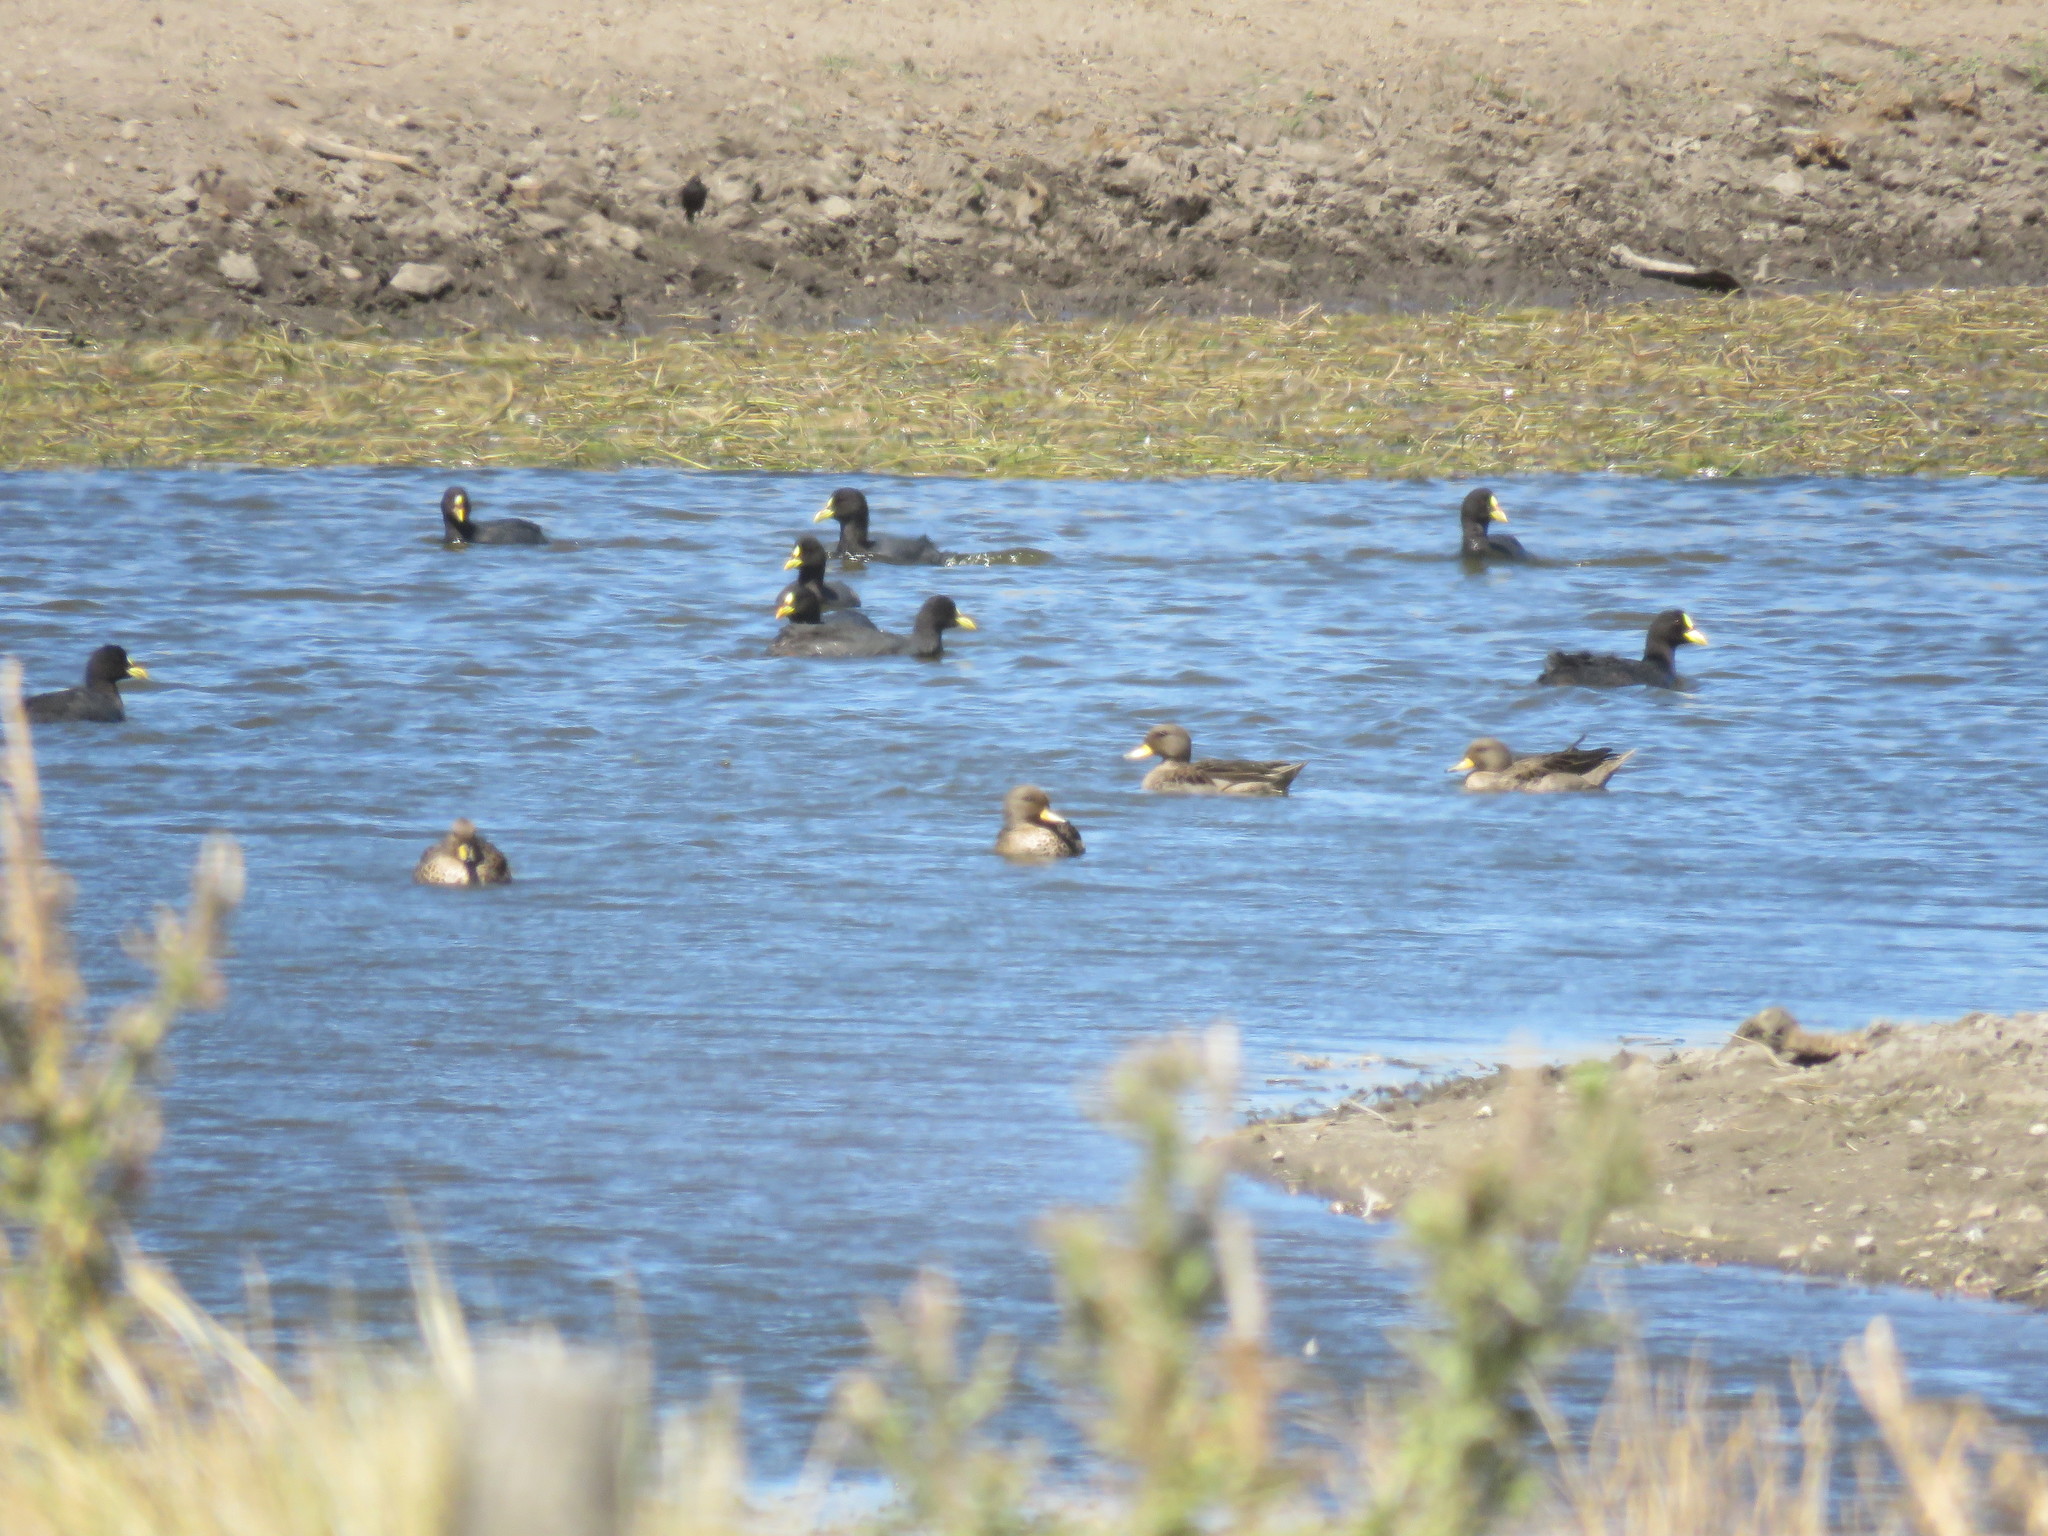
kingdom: Animalia
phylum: Chordata
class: Aves
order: Anseriformes
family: Anatidae
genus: Anas
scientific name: Anas flavirostris
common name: Yellow-billed teal
